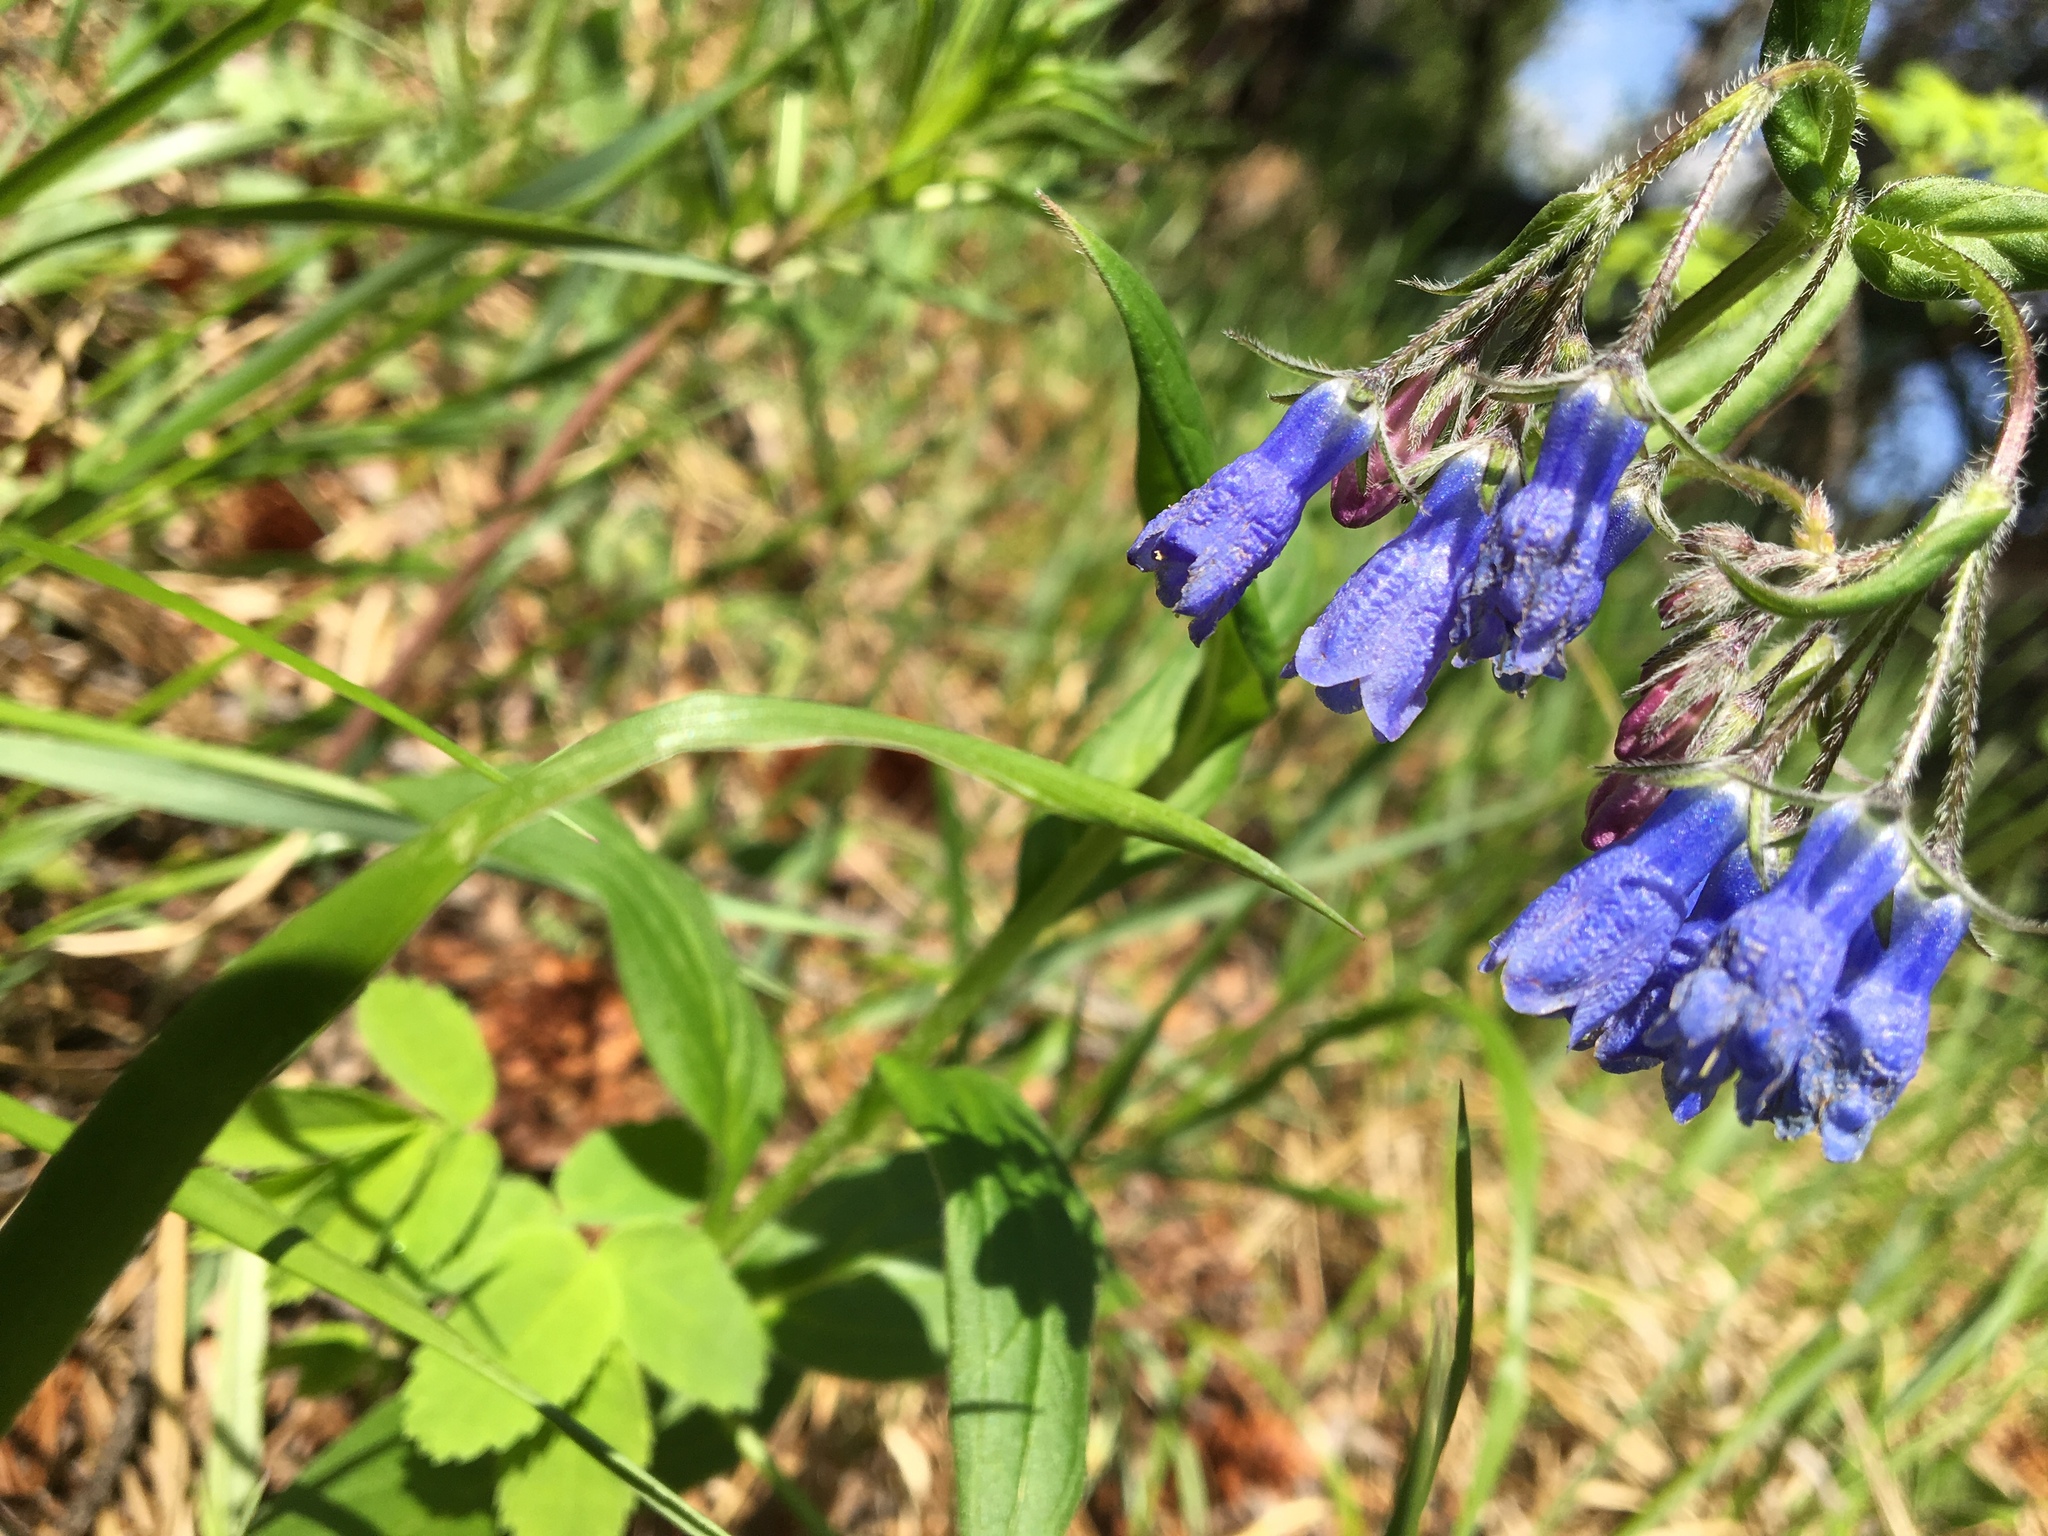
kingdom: Plantae
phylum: Tracheophyta
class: Magnoliopsida
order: Boraginales
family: Boraginaceae
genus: Mertensia
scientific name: Mertensia paniculata
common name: Panicled bluebells
